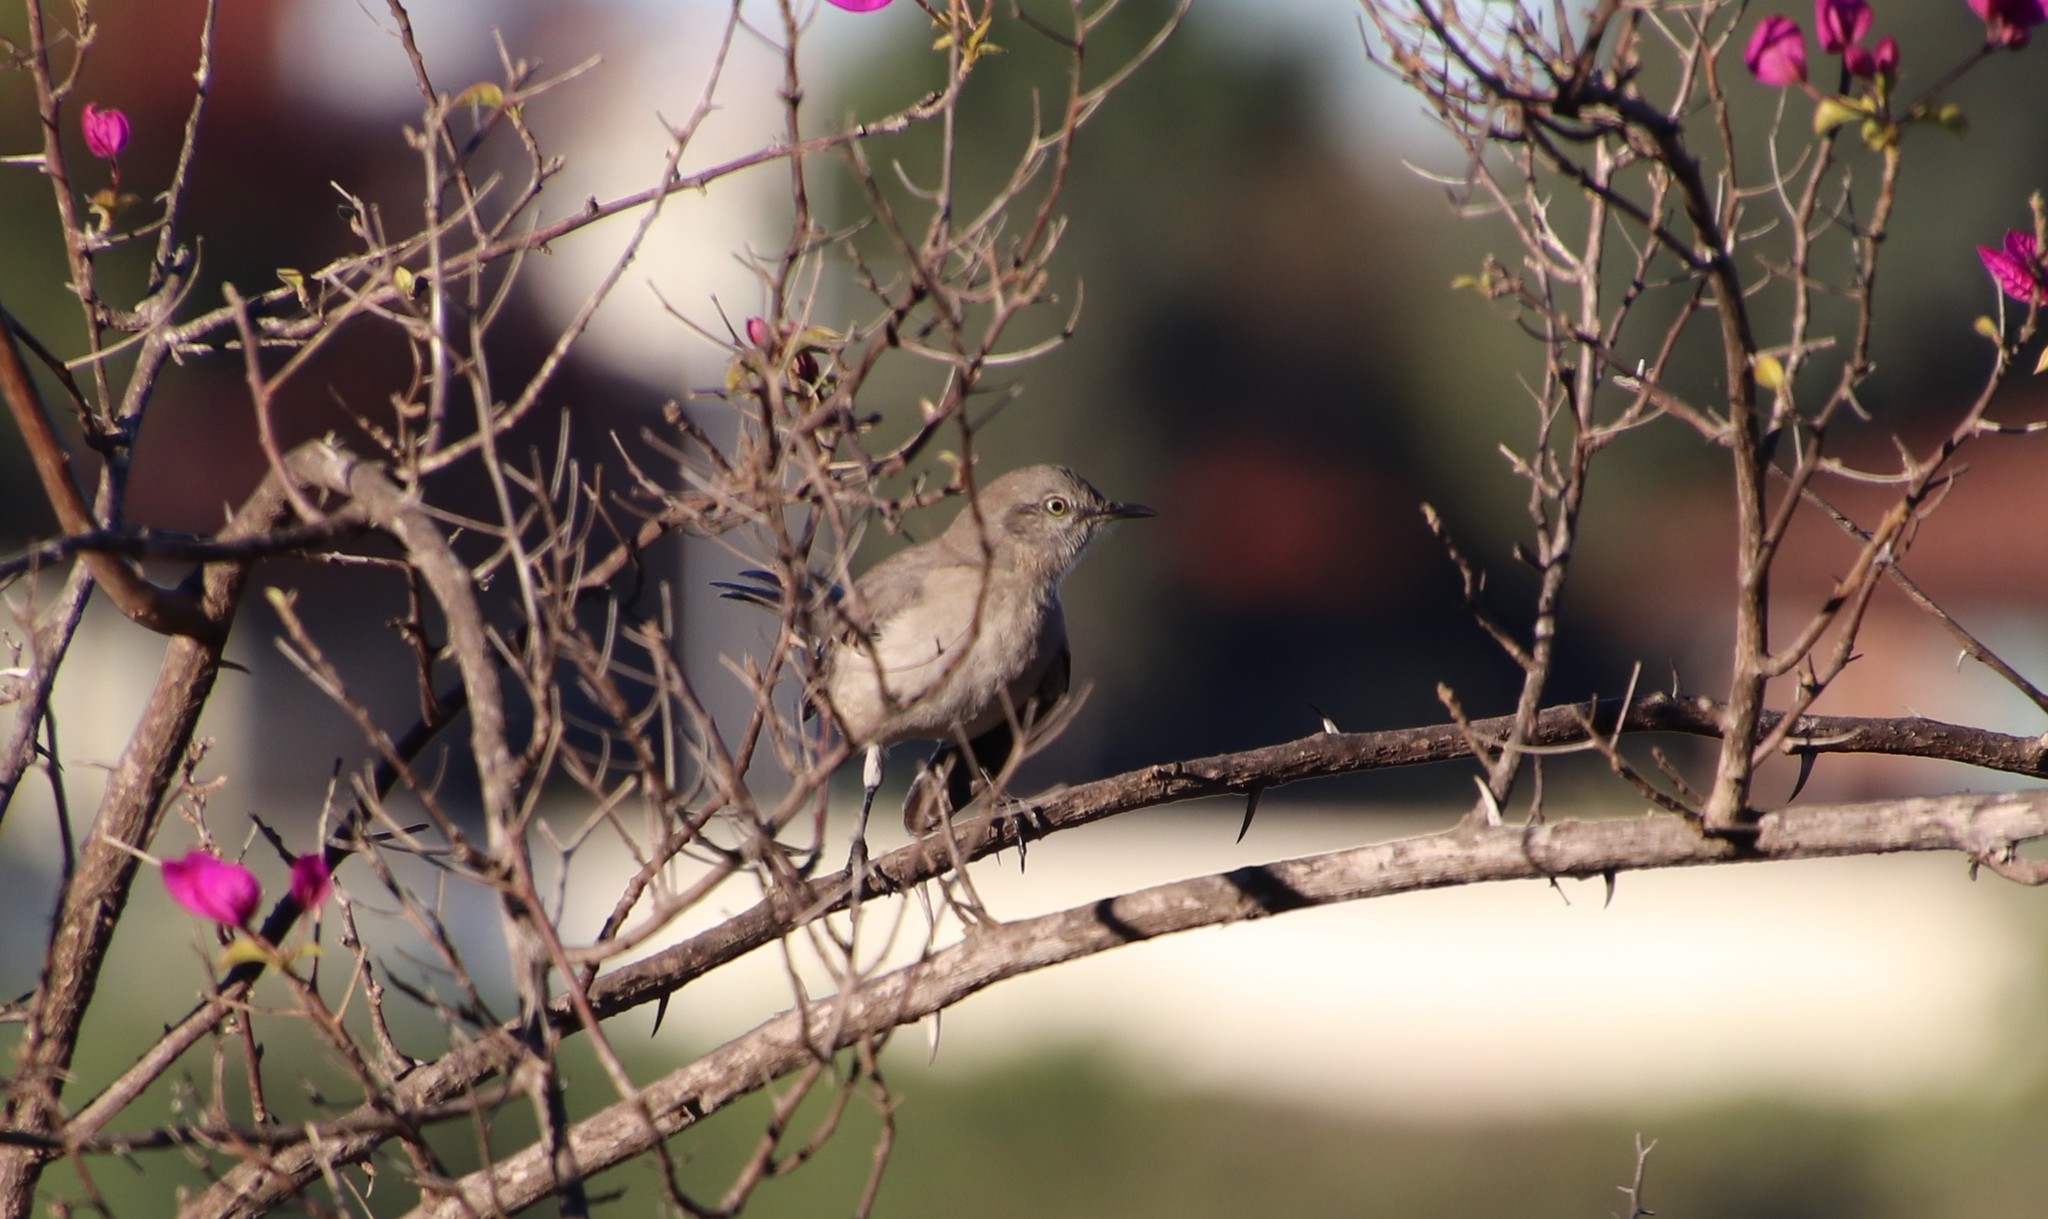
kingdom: Animalia
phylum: Chordata
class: Aves
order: Passeriformes
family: Mimidae
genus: Mimus
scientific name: Mimus polyglottos
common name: Northern mockingbird
